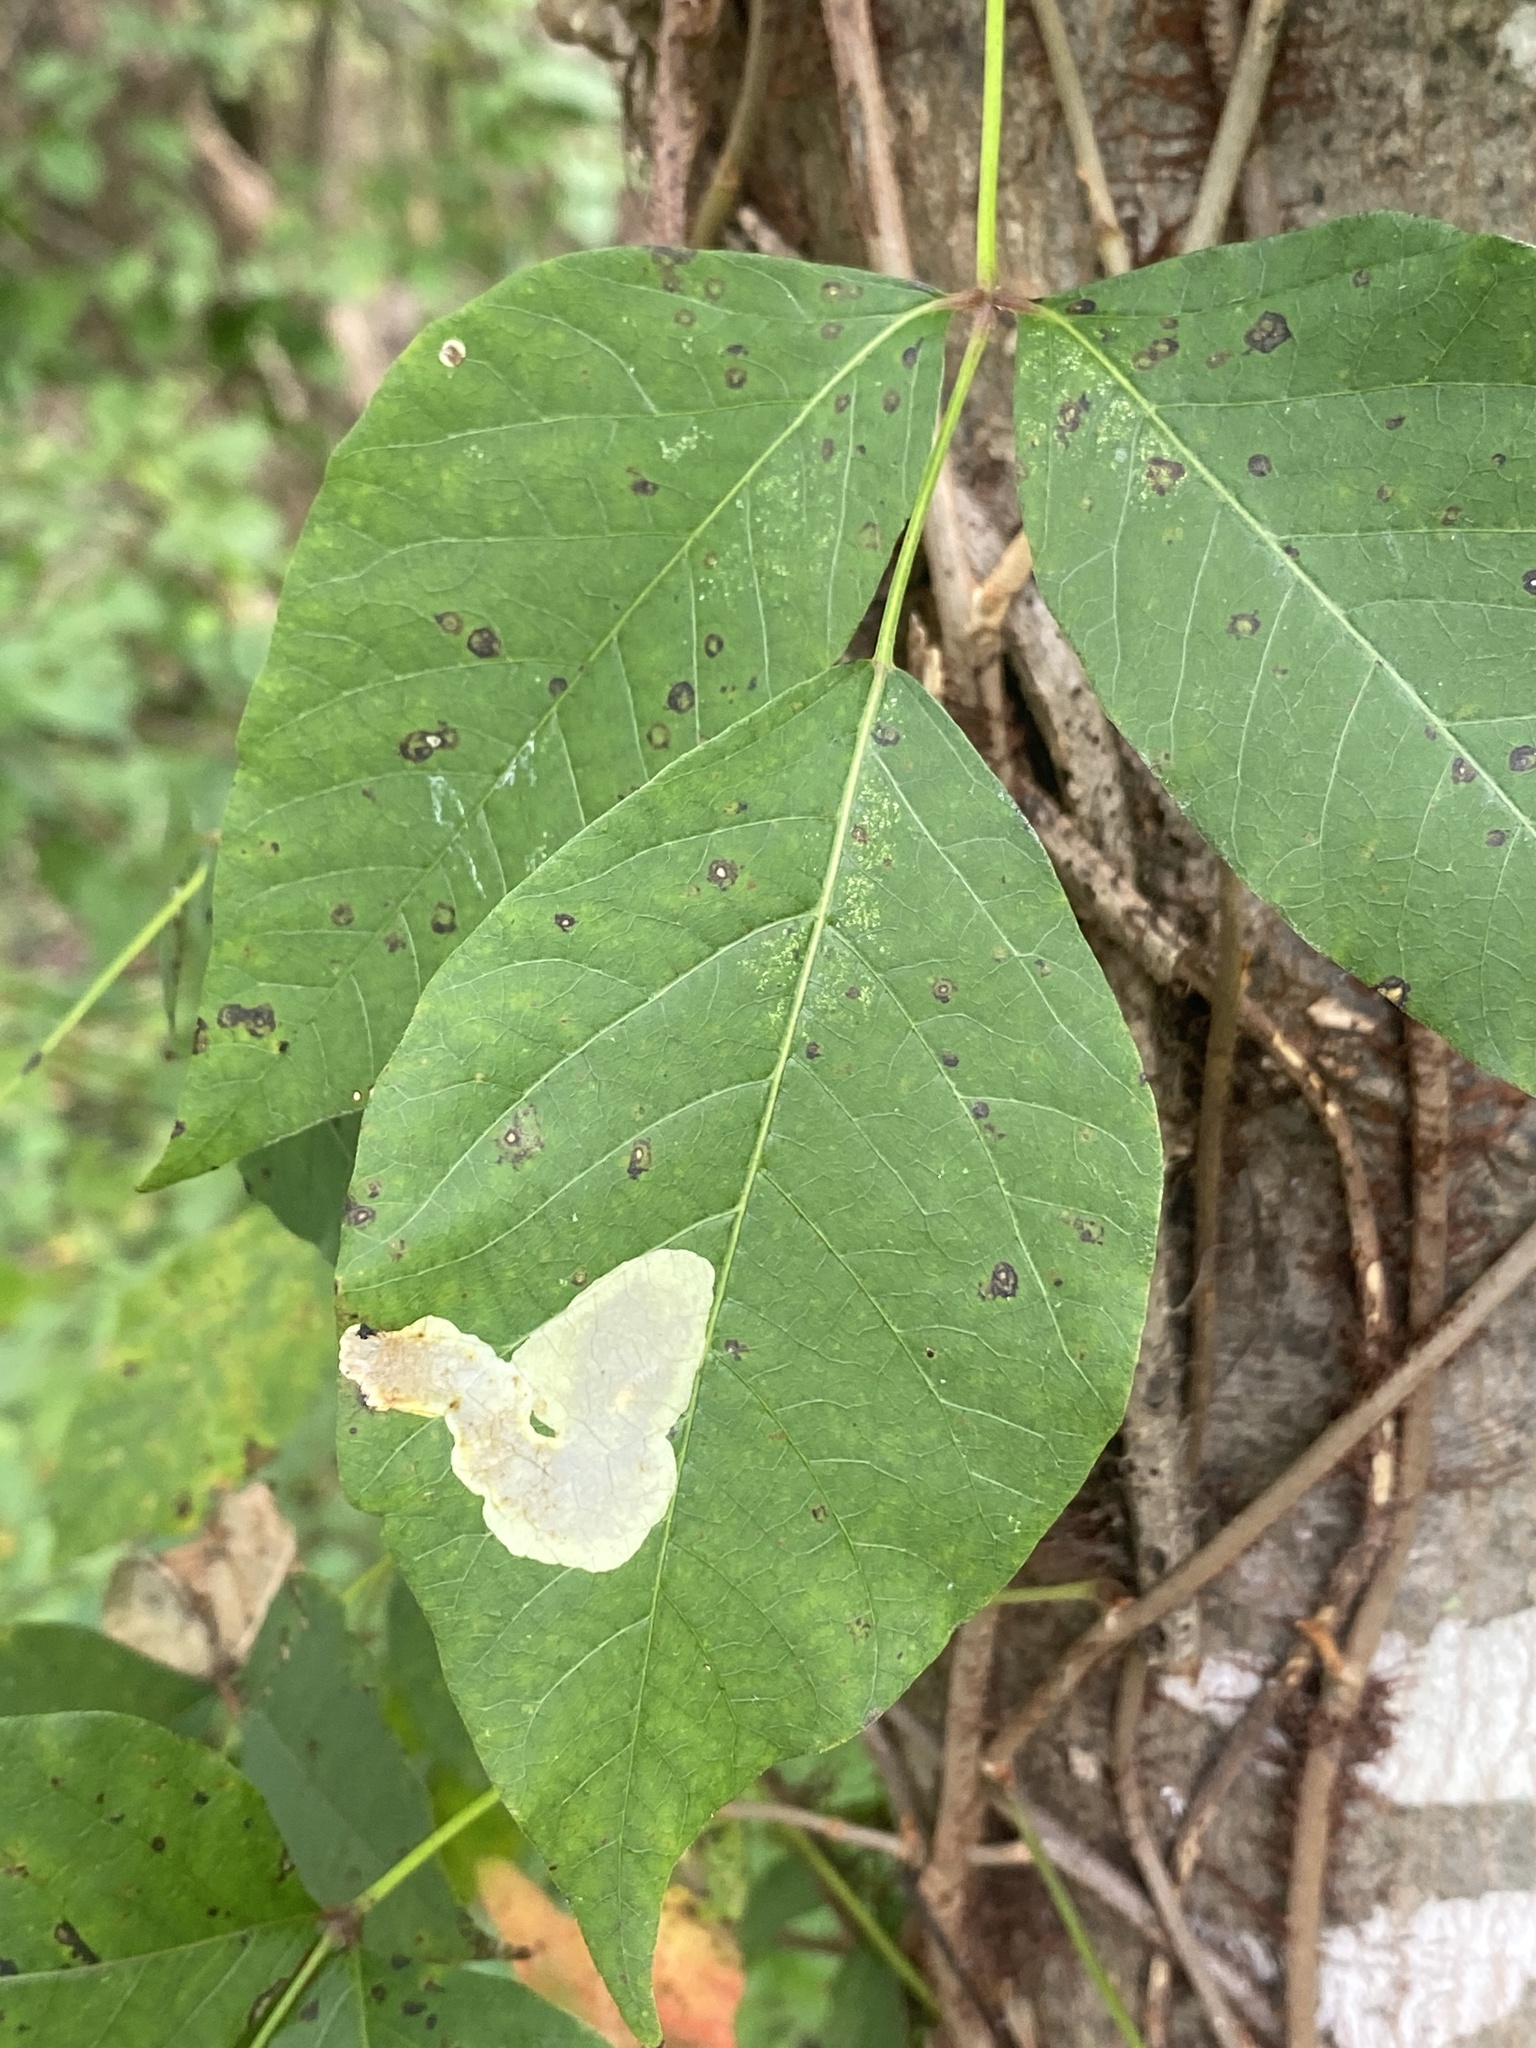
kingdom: Animalia
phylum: Arthropoda
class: Insecta
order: Lepidoptera
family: Gracillariidae
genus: Cameraria
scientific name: Cameraria guttifinitella
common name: Poison ivy leaf-miner moth
